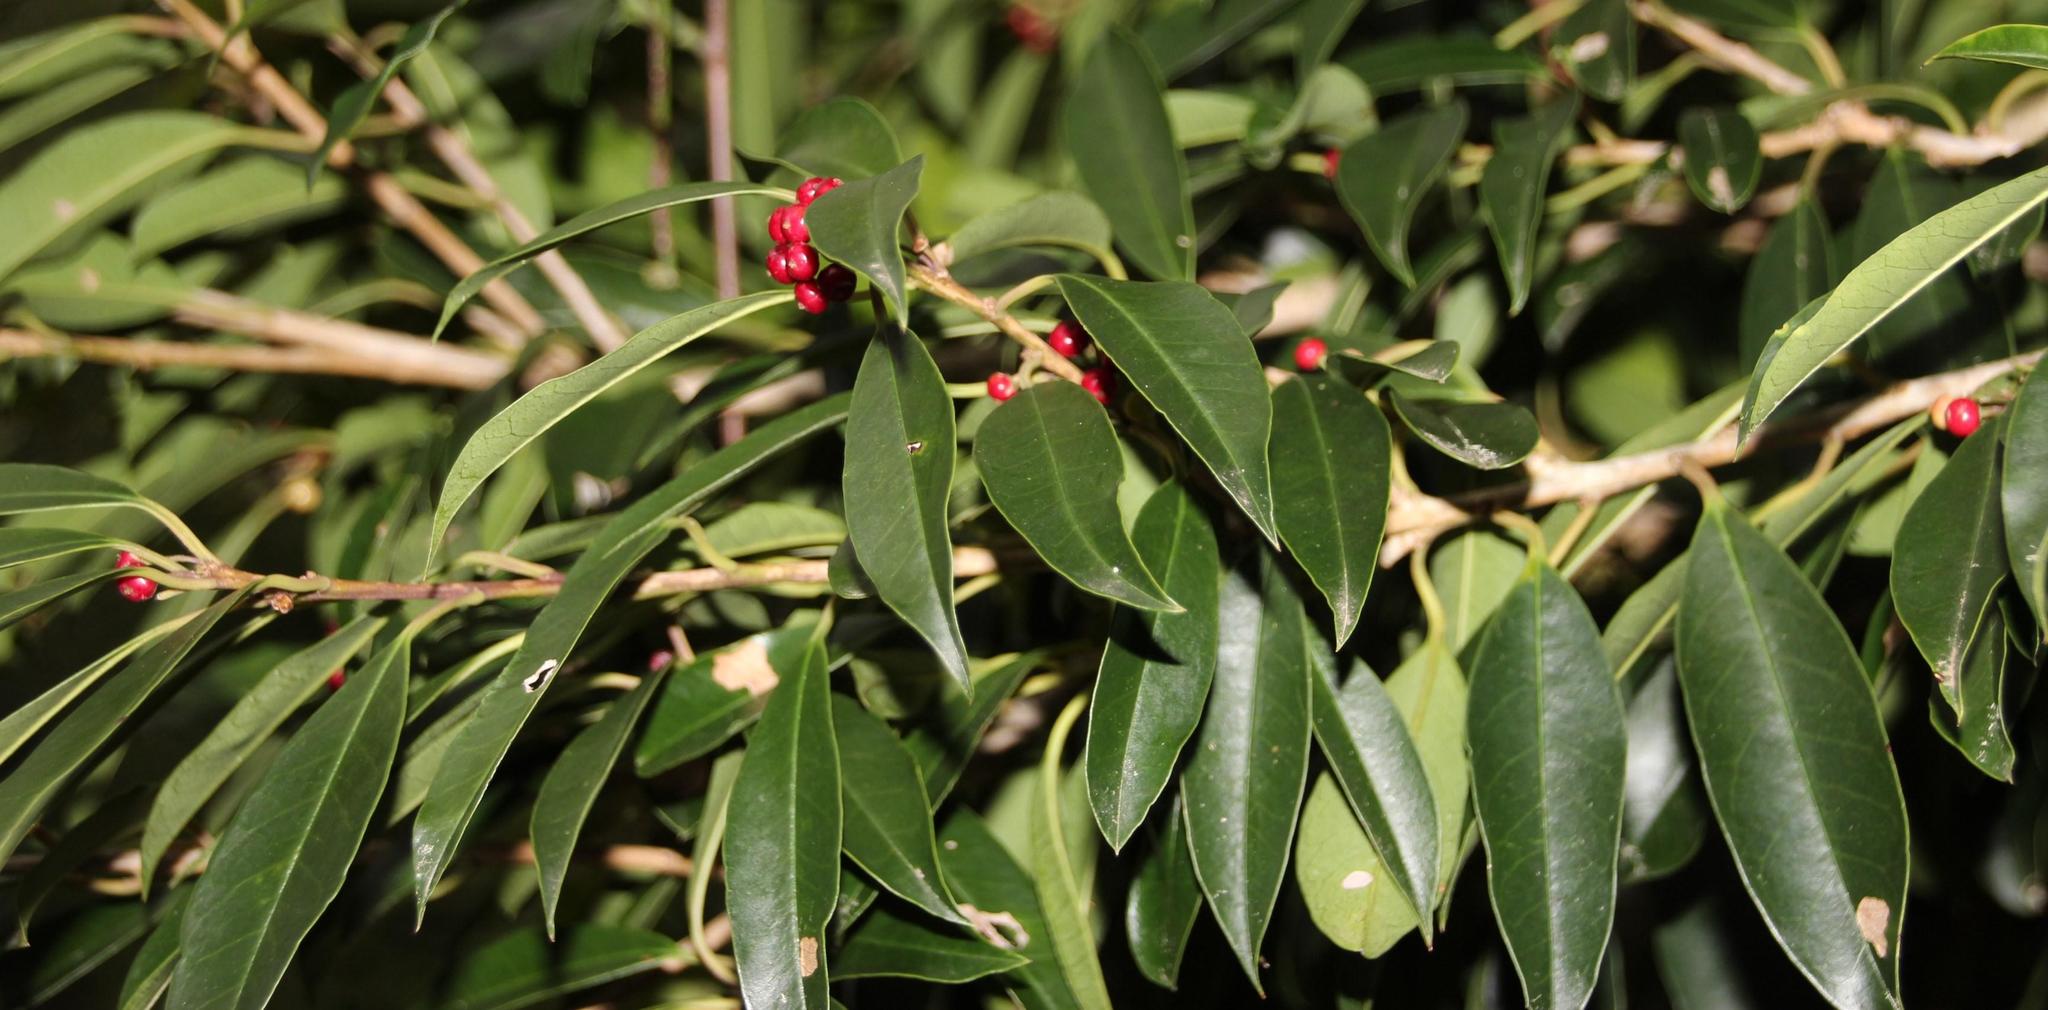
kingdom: Plantae
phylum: Tracheophyta
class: Magnoliopsida
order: Aquifoliales
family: Aquifoliaceae
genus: Ilex
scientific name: Ilex mitis
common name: African holly
